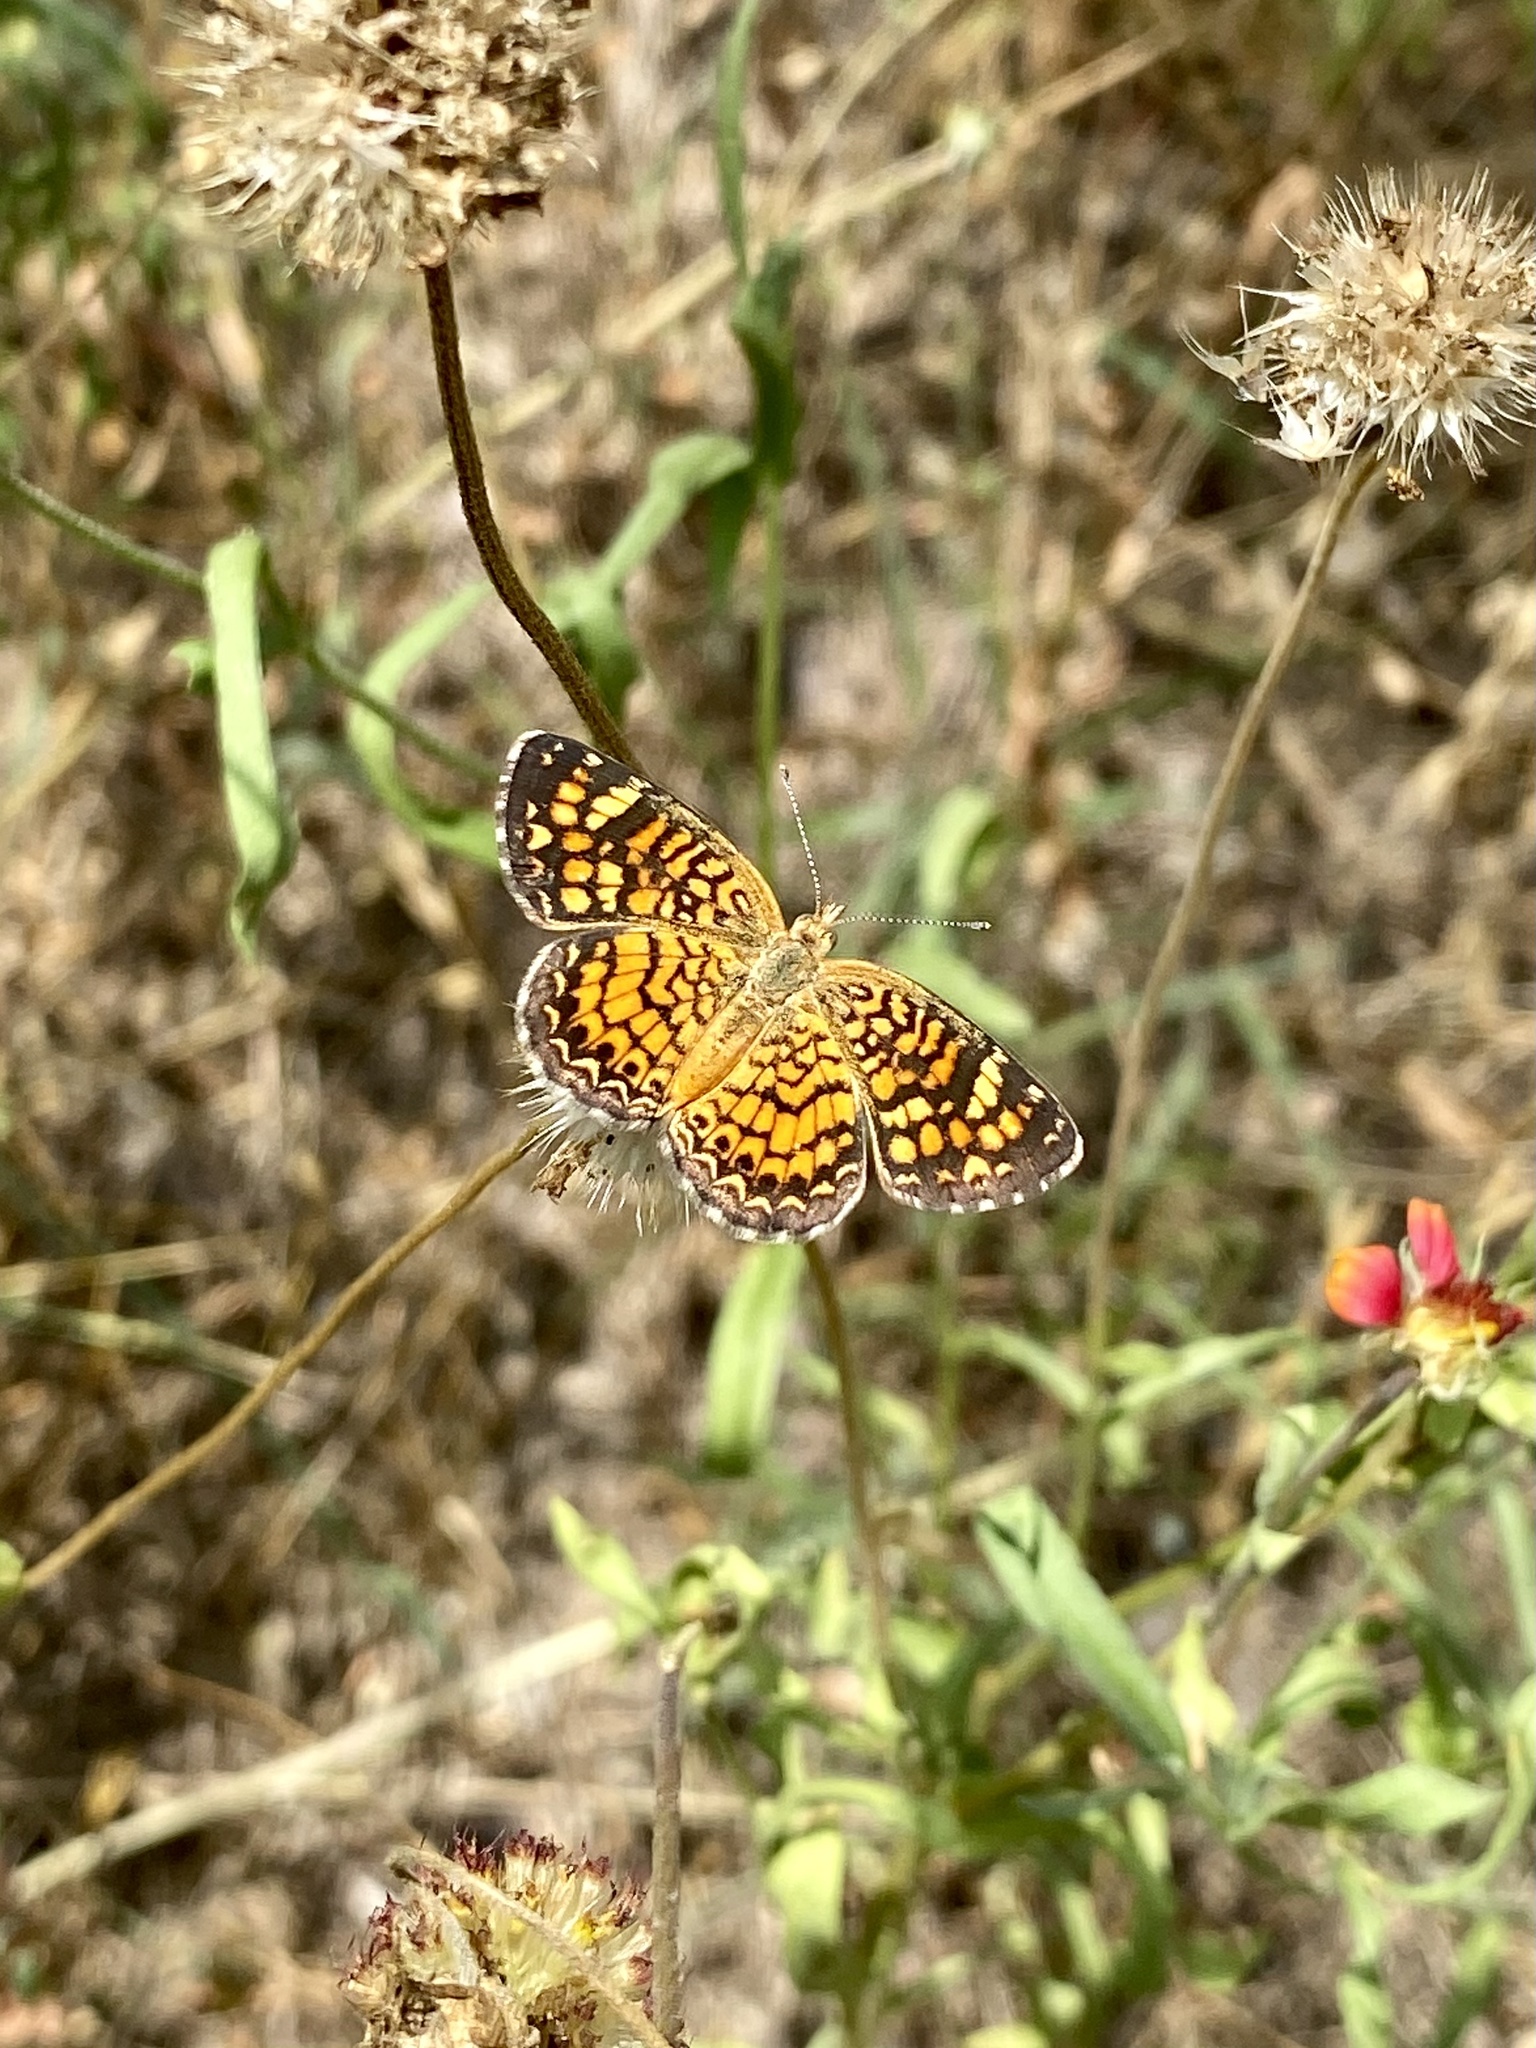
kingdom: Animalia
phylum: Arthropoda
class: Insecta
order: Lepidoptera
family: Nymphalidae
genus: Phyciodes
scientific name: Phyciodes vesta
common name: Vesta crescent
